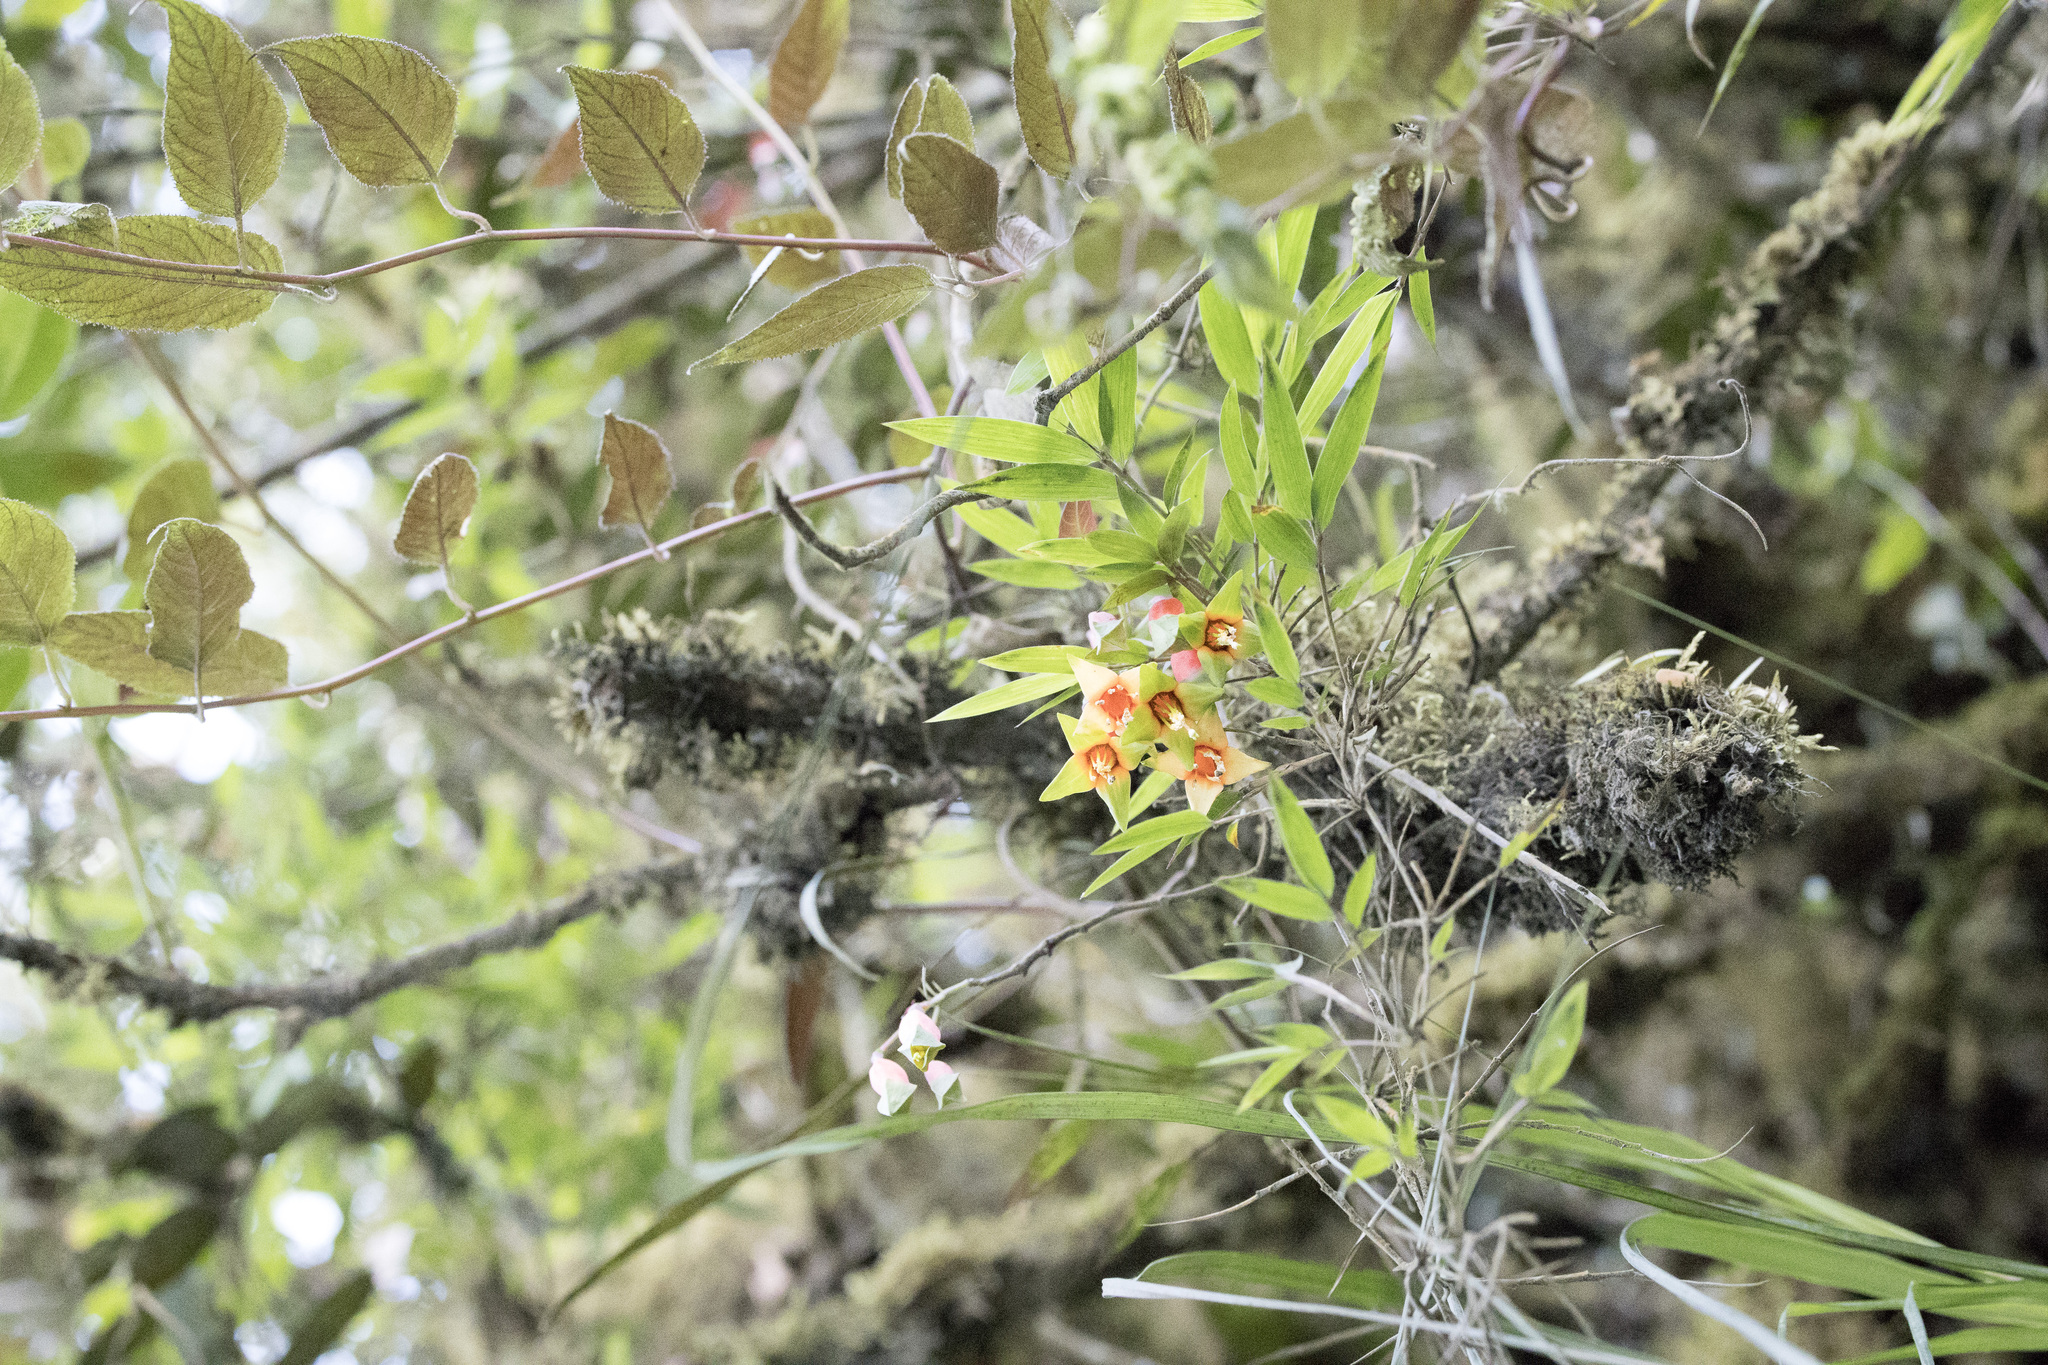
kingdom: Plantae
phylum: Tracheophyta
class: Magnoliopsida
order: Myrtales
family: Onagraceae
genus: Fuchsia
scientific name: Fuchsia chloroloba
